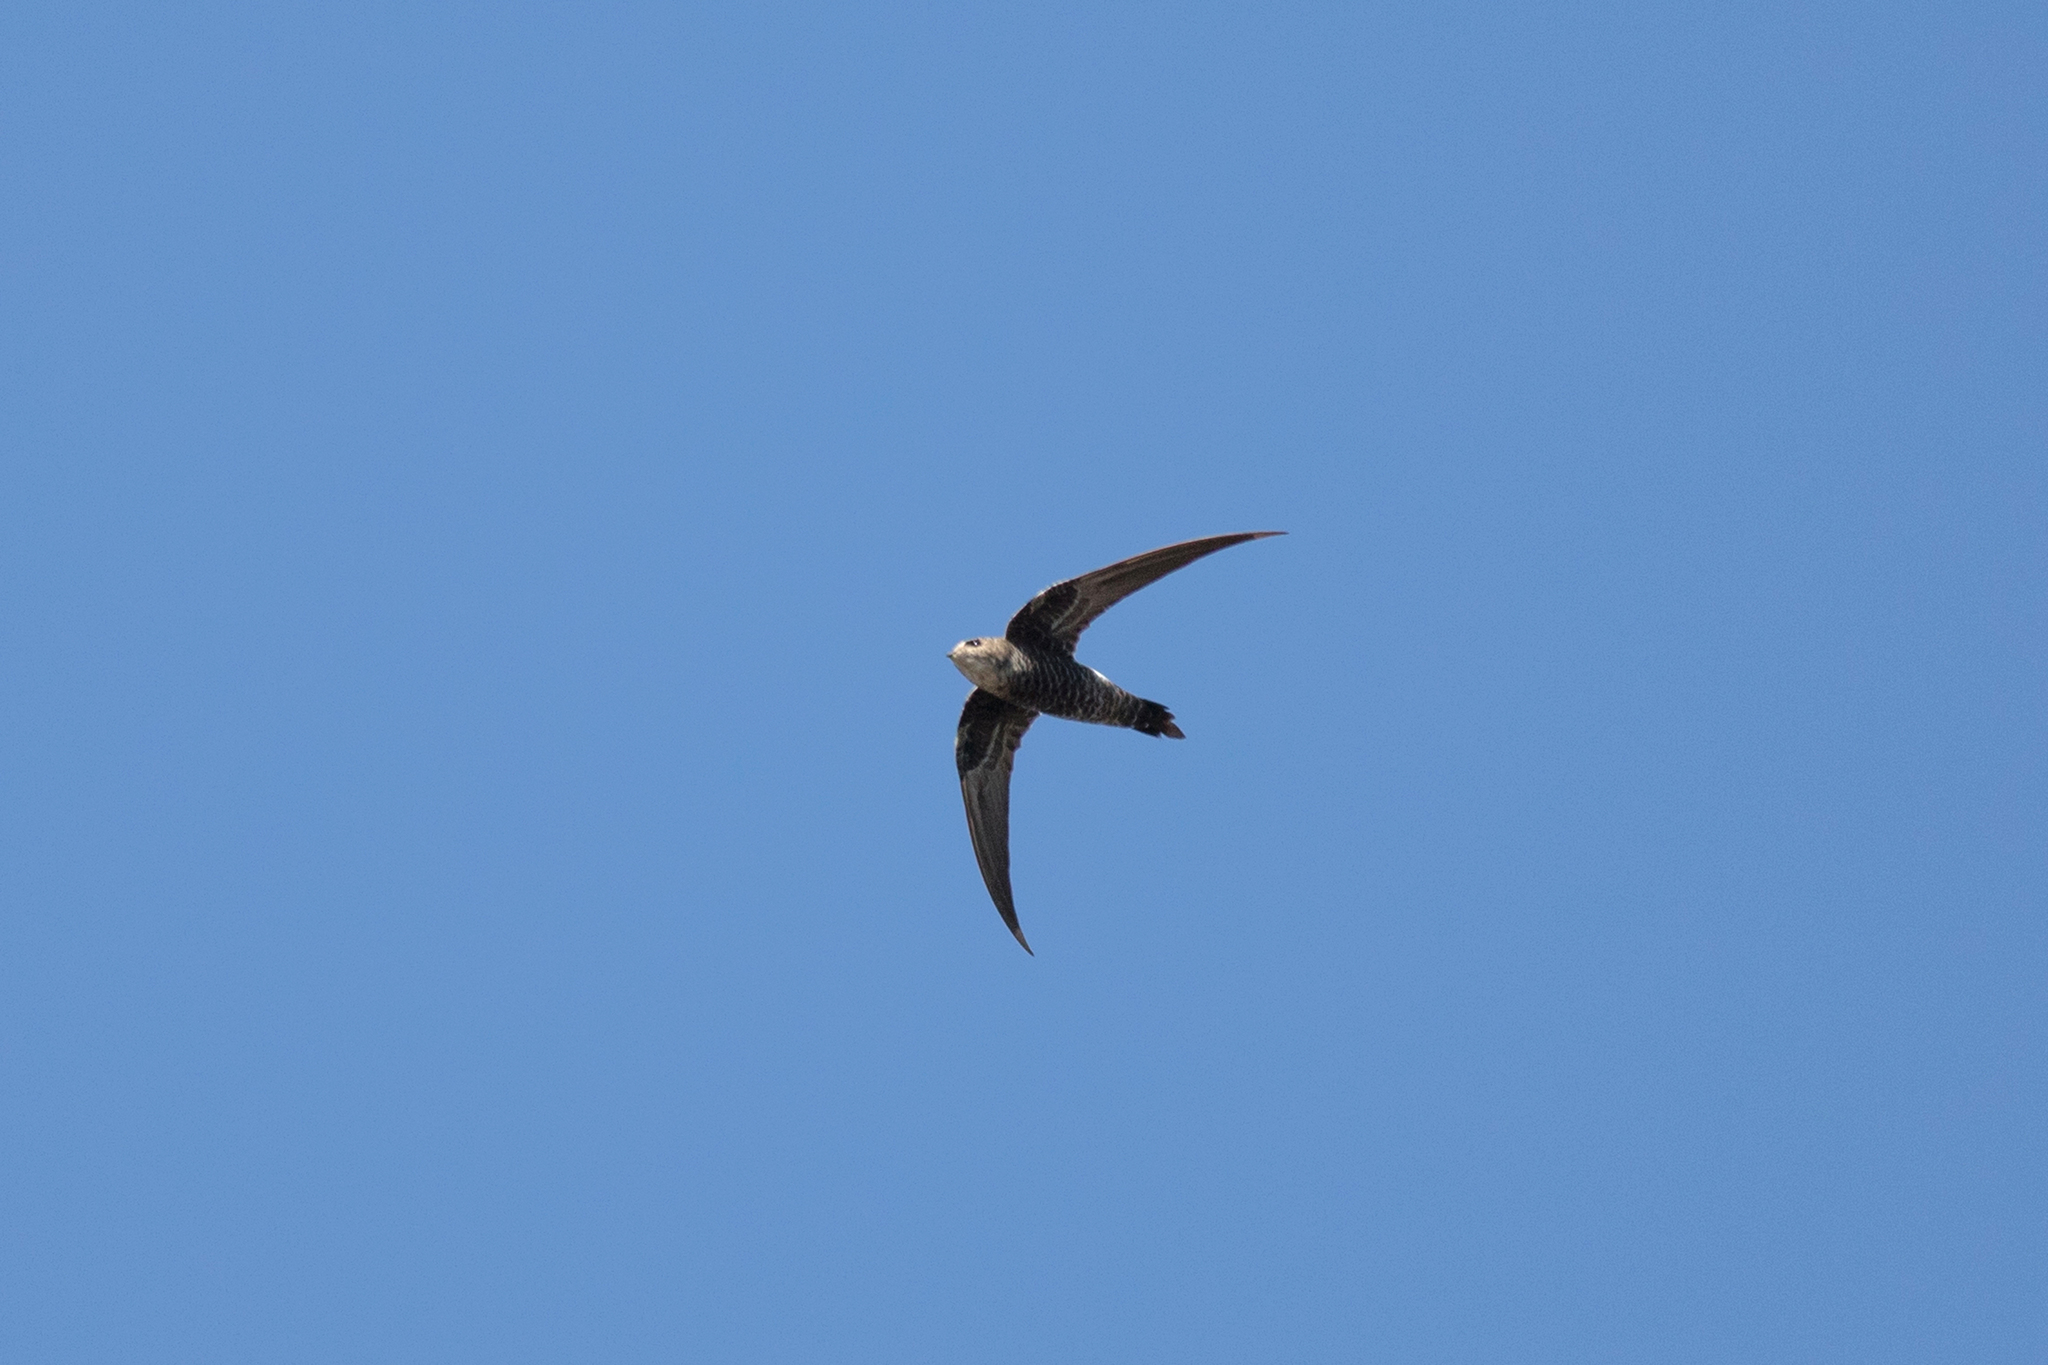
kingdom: Animalia
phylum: Chordata
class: Aves
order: Apodiformes
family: Apodidae
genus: Apus
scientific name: Apus pacificus
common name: Pacific swift
